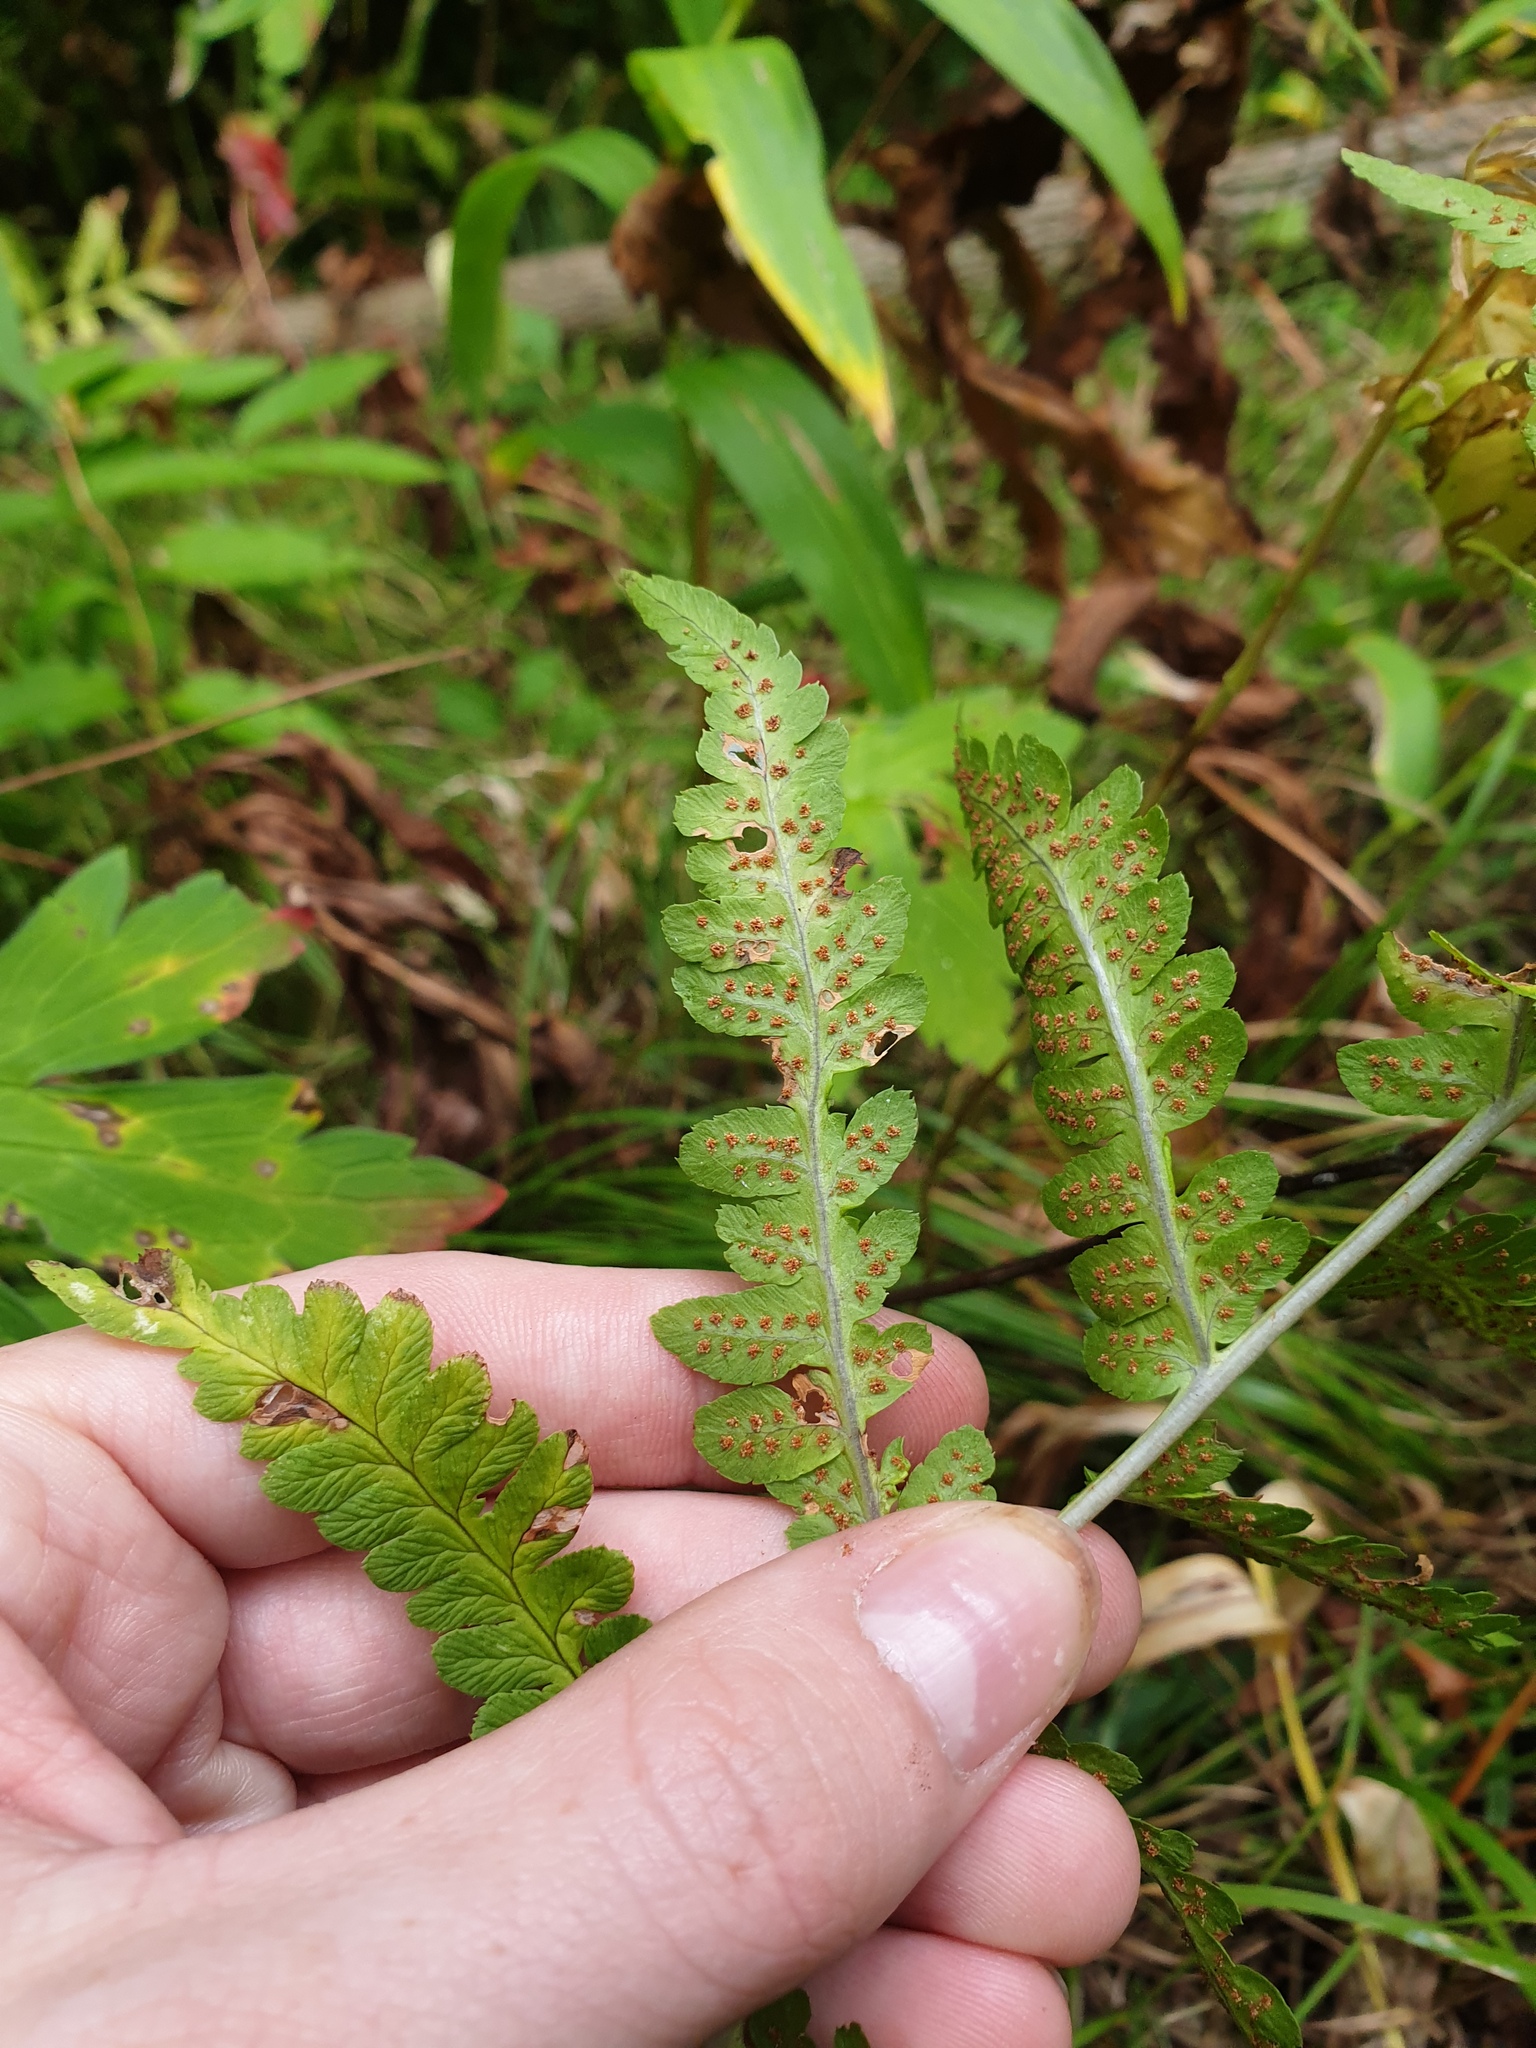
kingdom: Plantae
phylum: Tracheophyta
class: Polypodiopsida
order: Polypodiales
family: Dryopteridaceae
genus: Dryopteris
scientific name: Dryopteris cristata
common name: Crested wood fern
